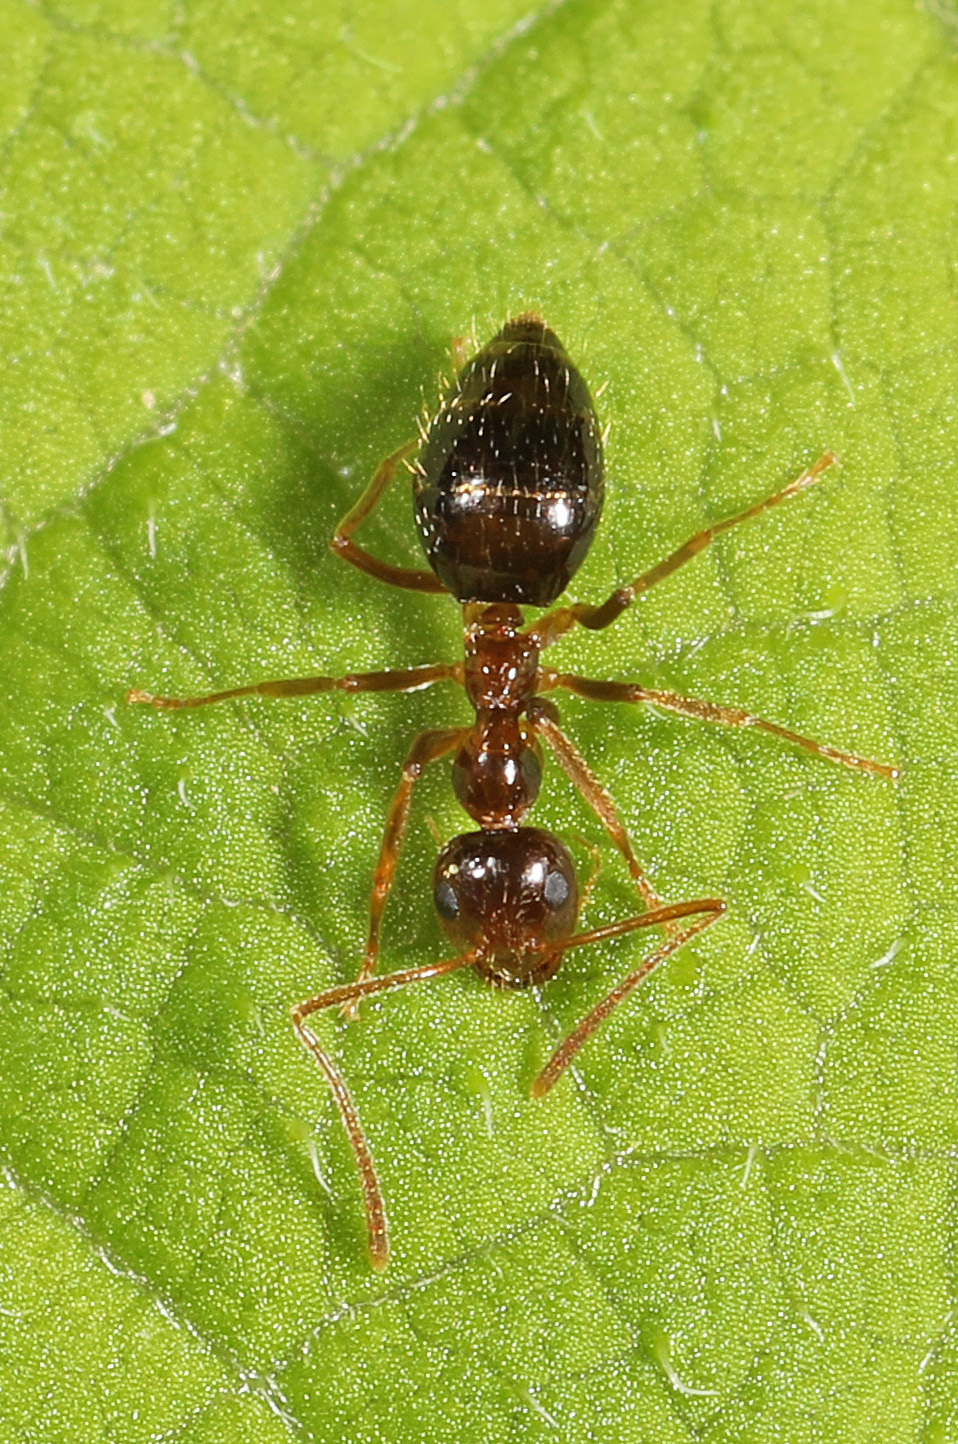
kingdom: Animalia
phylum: Arthropoda
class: Insecta
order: Hymenoptera
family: Formicidae
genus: Prenolepis
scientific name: Prenolepis imparis
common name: Small honey ant
